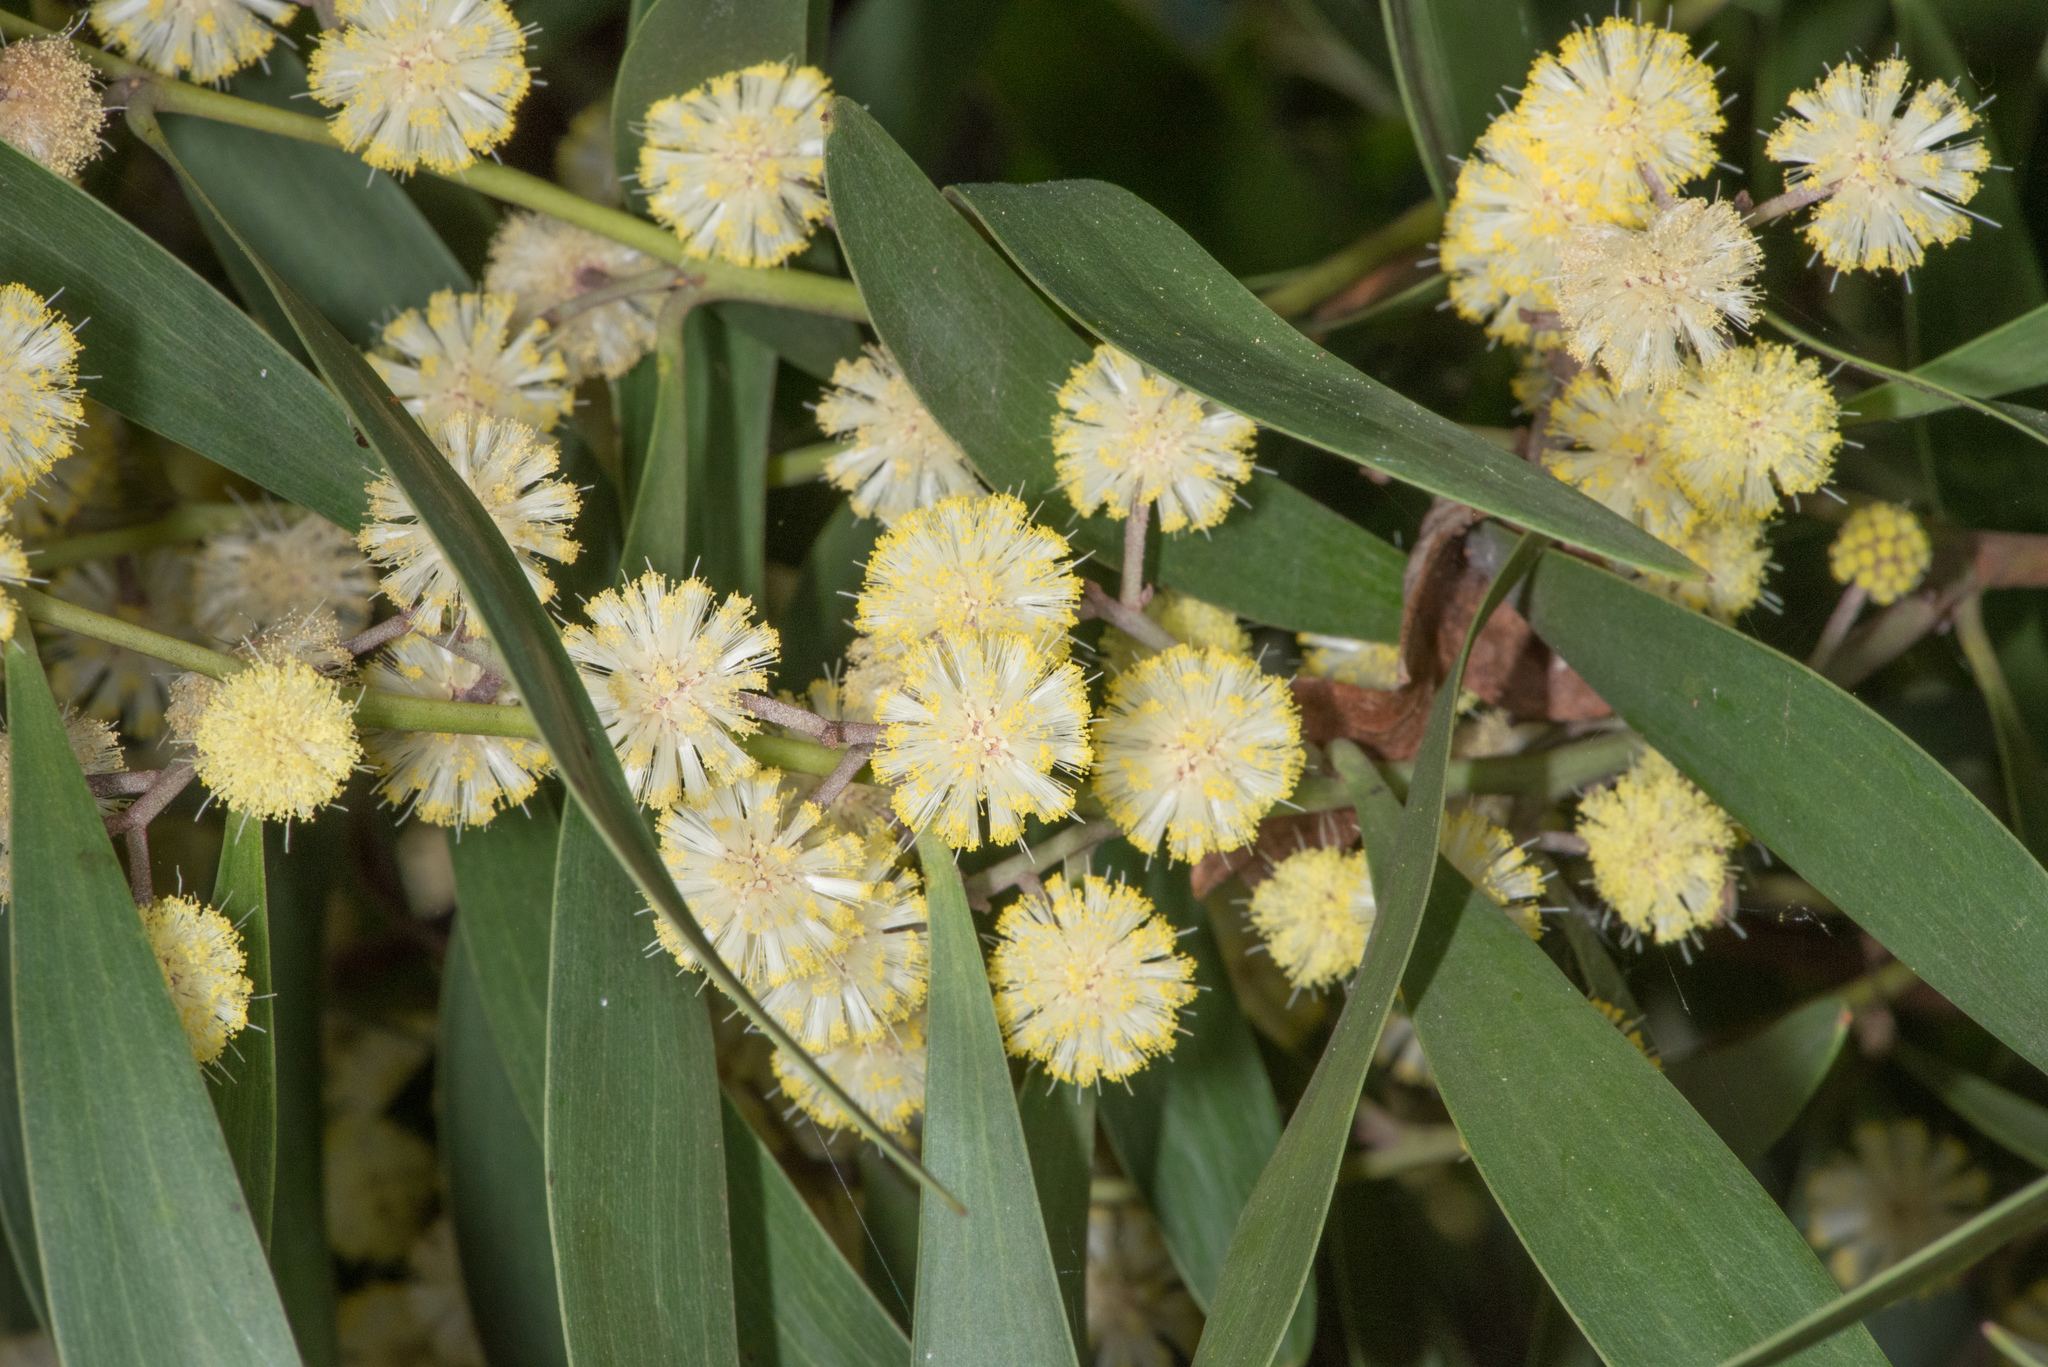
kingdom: Plantae
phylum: Tracheophyta
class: Magnoliopsida
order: Fabales
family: Fabaceae
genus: Acacia
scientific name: Acacia melanoxylon
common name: Blackwood
